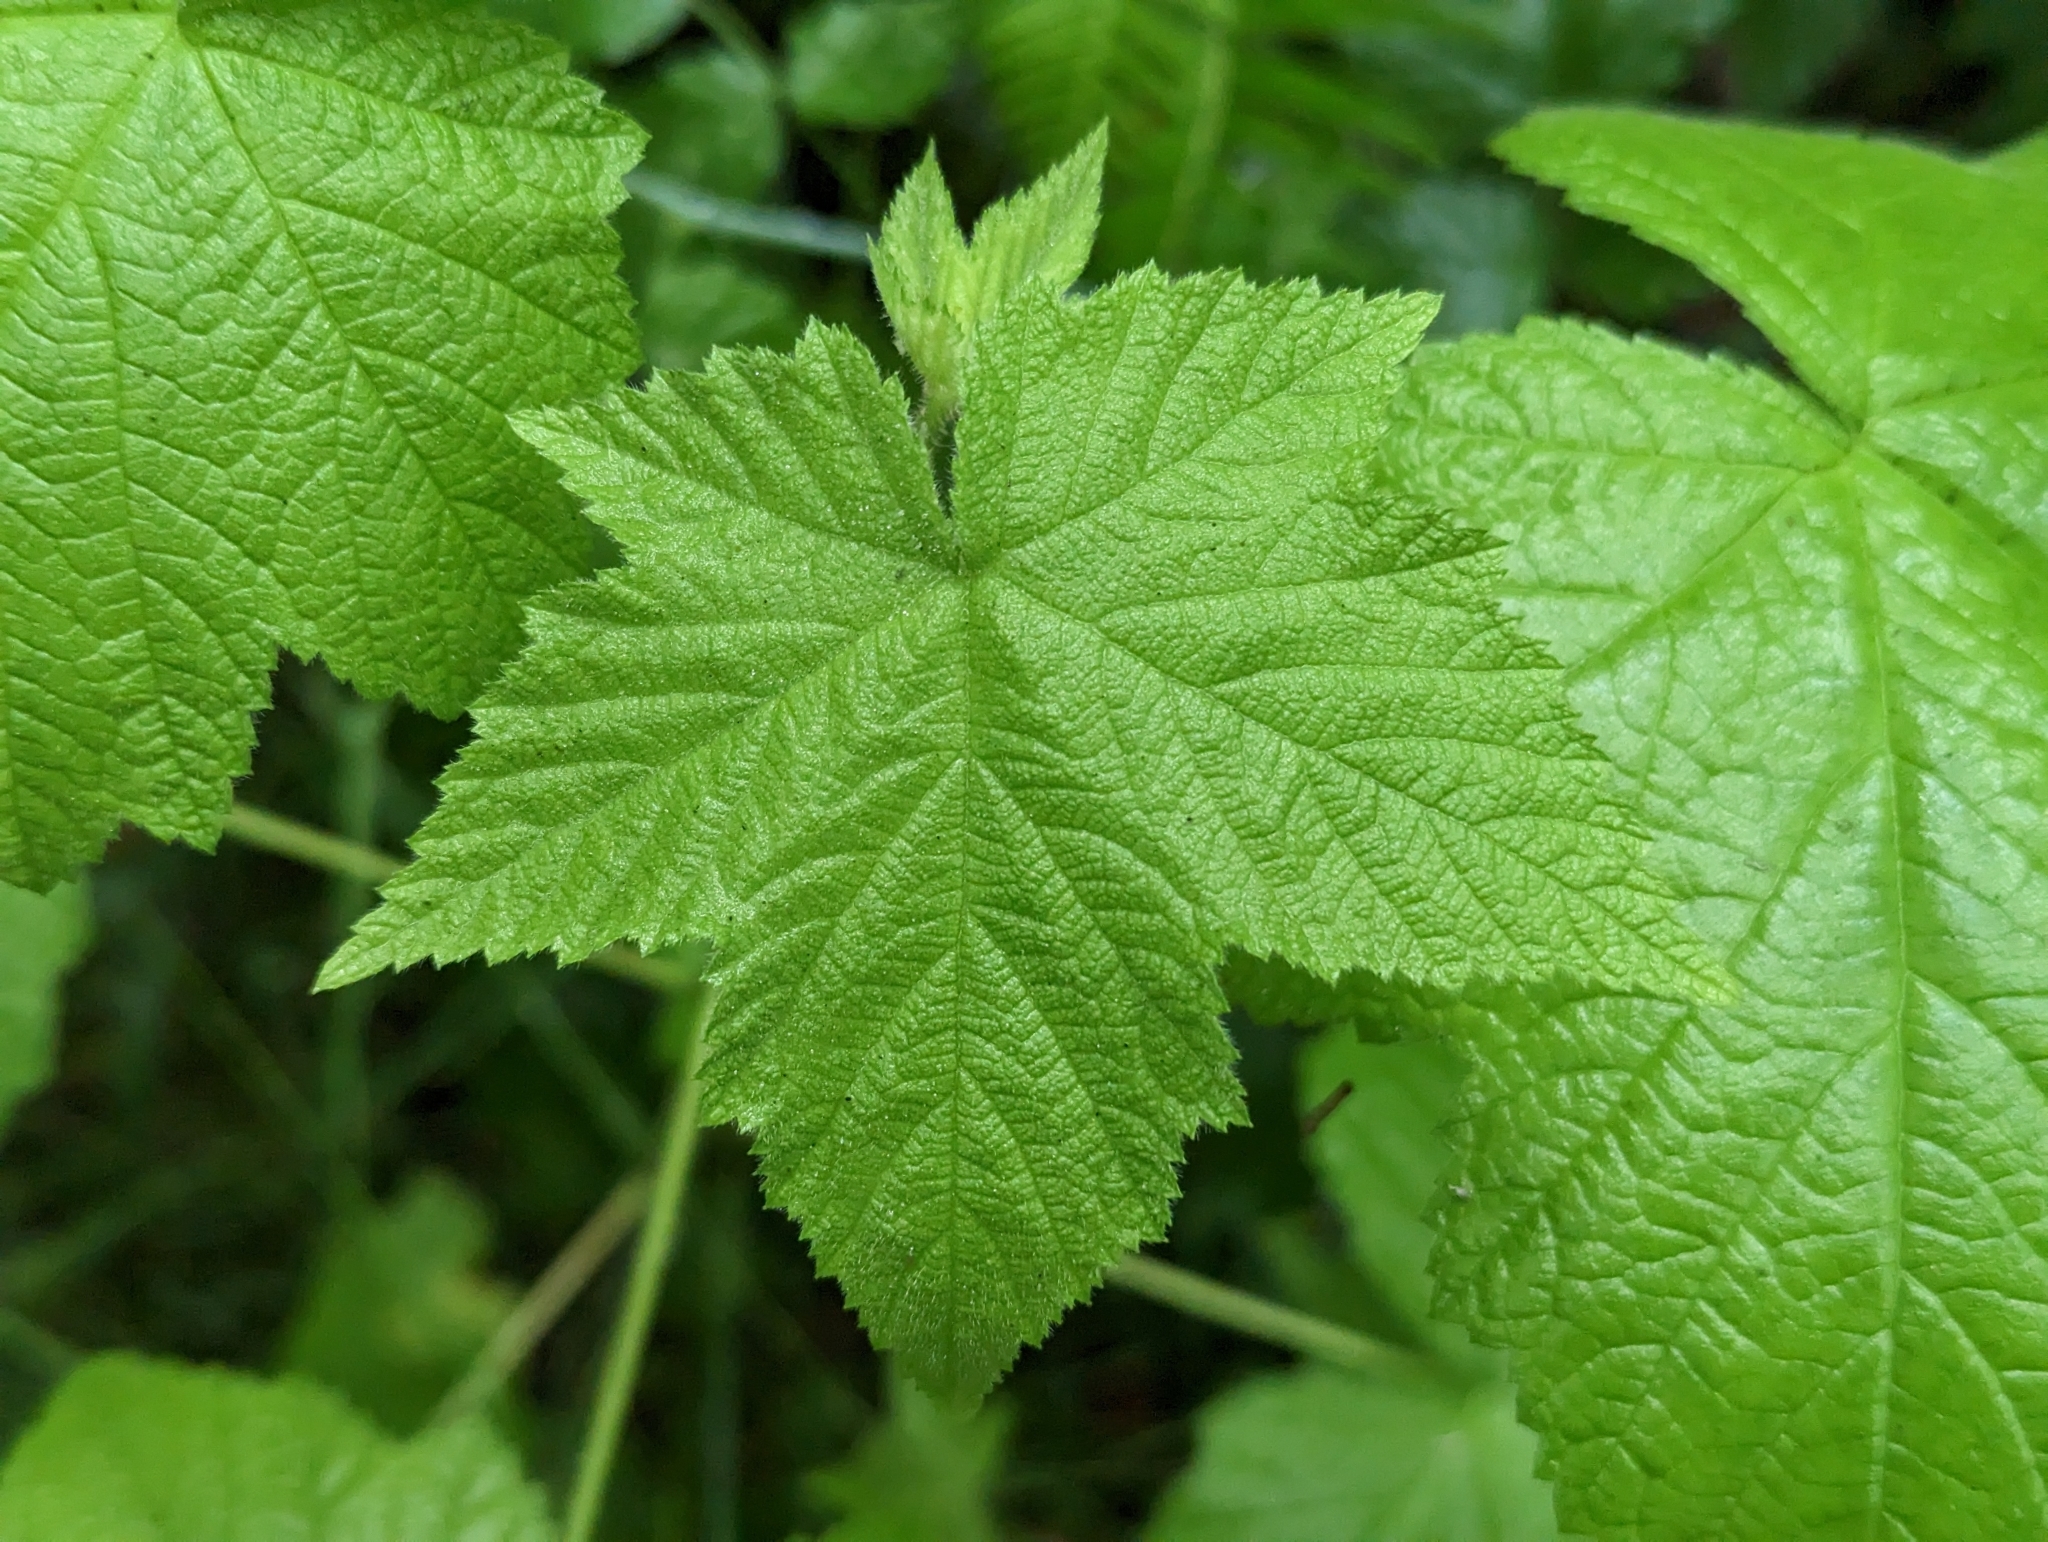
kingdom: Plantae
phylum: Tracheophyta
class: Magnoliopsida
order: Rosales
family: Rosaceae
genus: Rubus
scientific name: Rubus parviflorus
